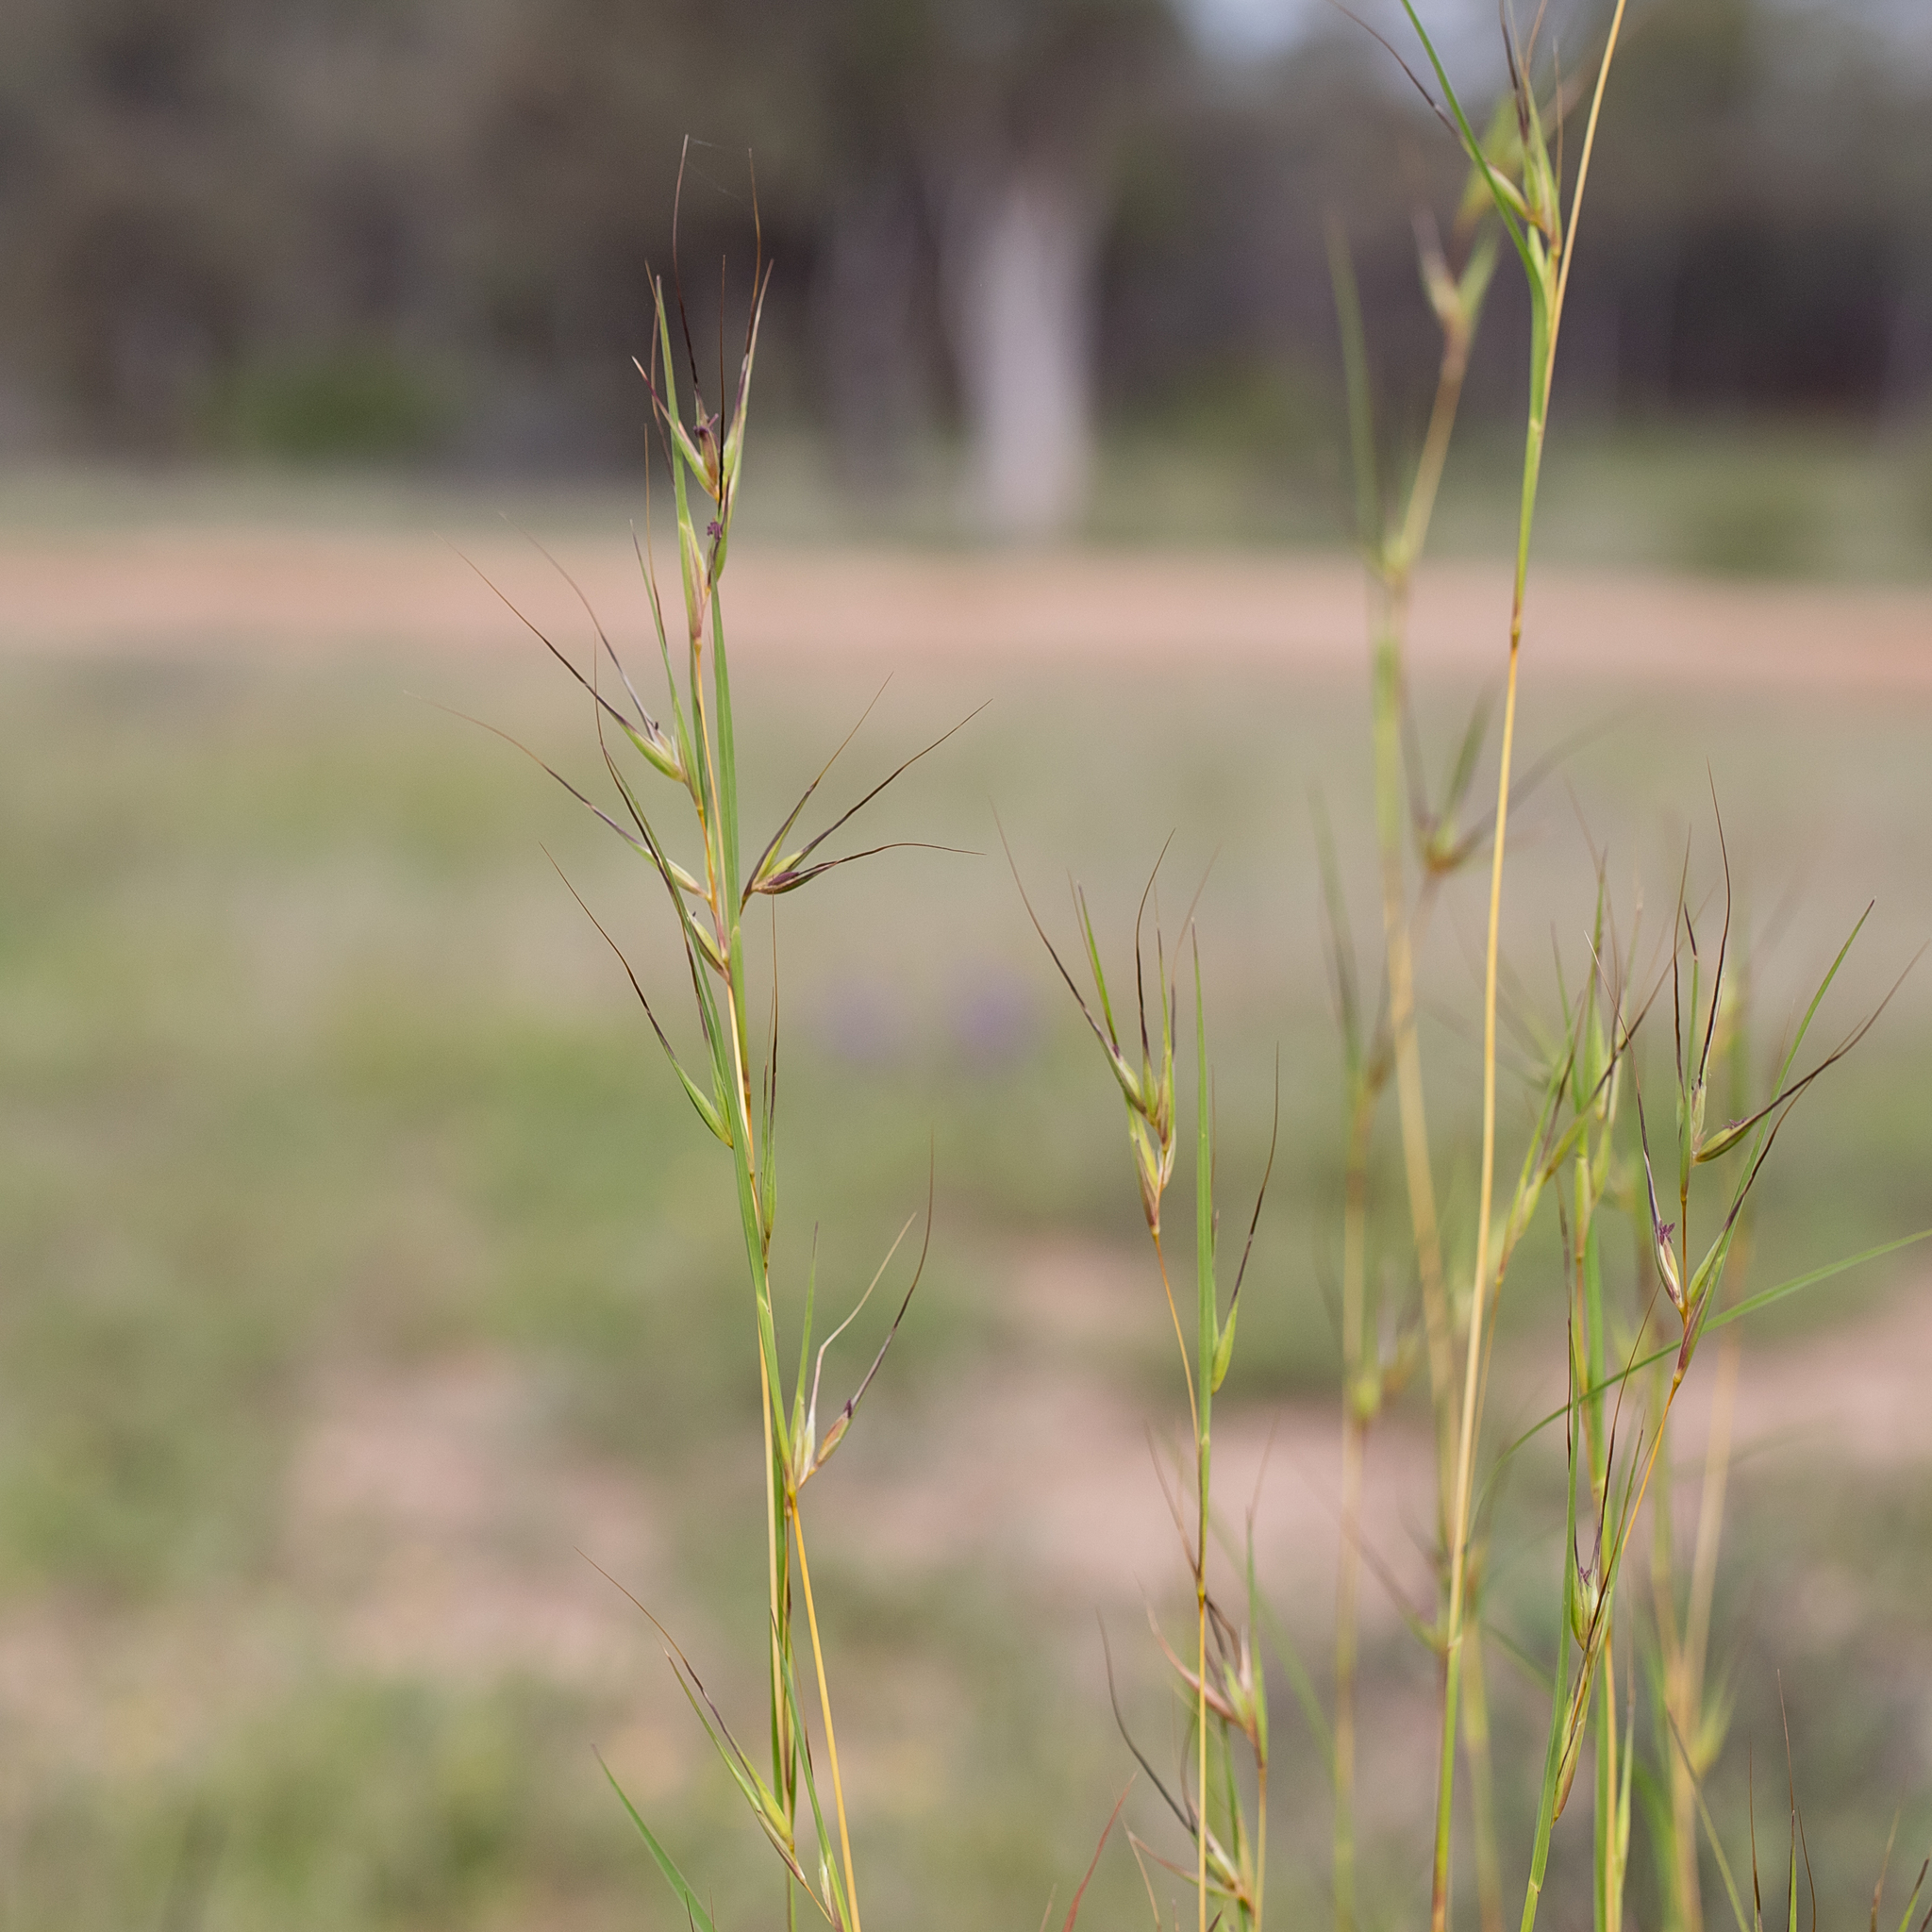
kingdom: Plantae
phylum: Tracheophyta
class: Liliopsida
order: Poales
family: Poaceae
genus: Themeda
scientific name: Themeda triandra
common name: Kangaroo grass
